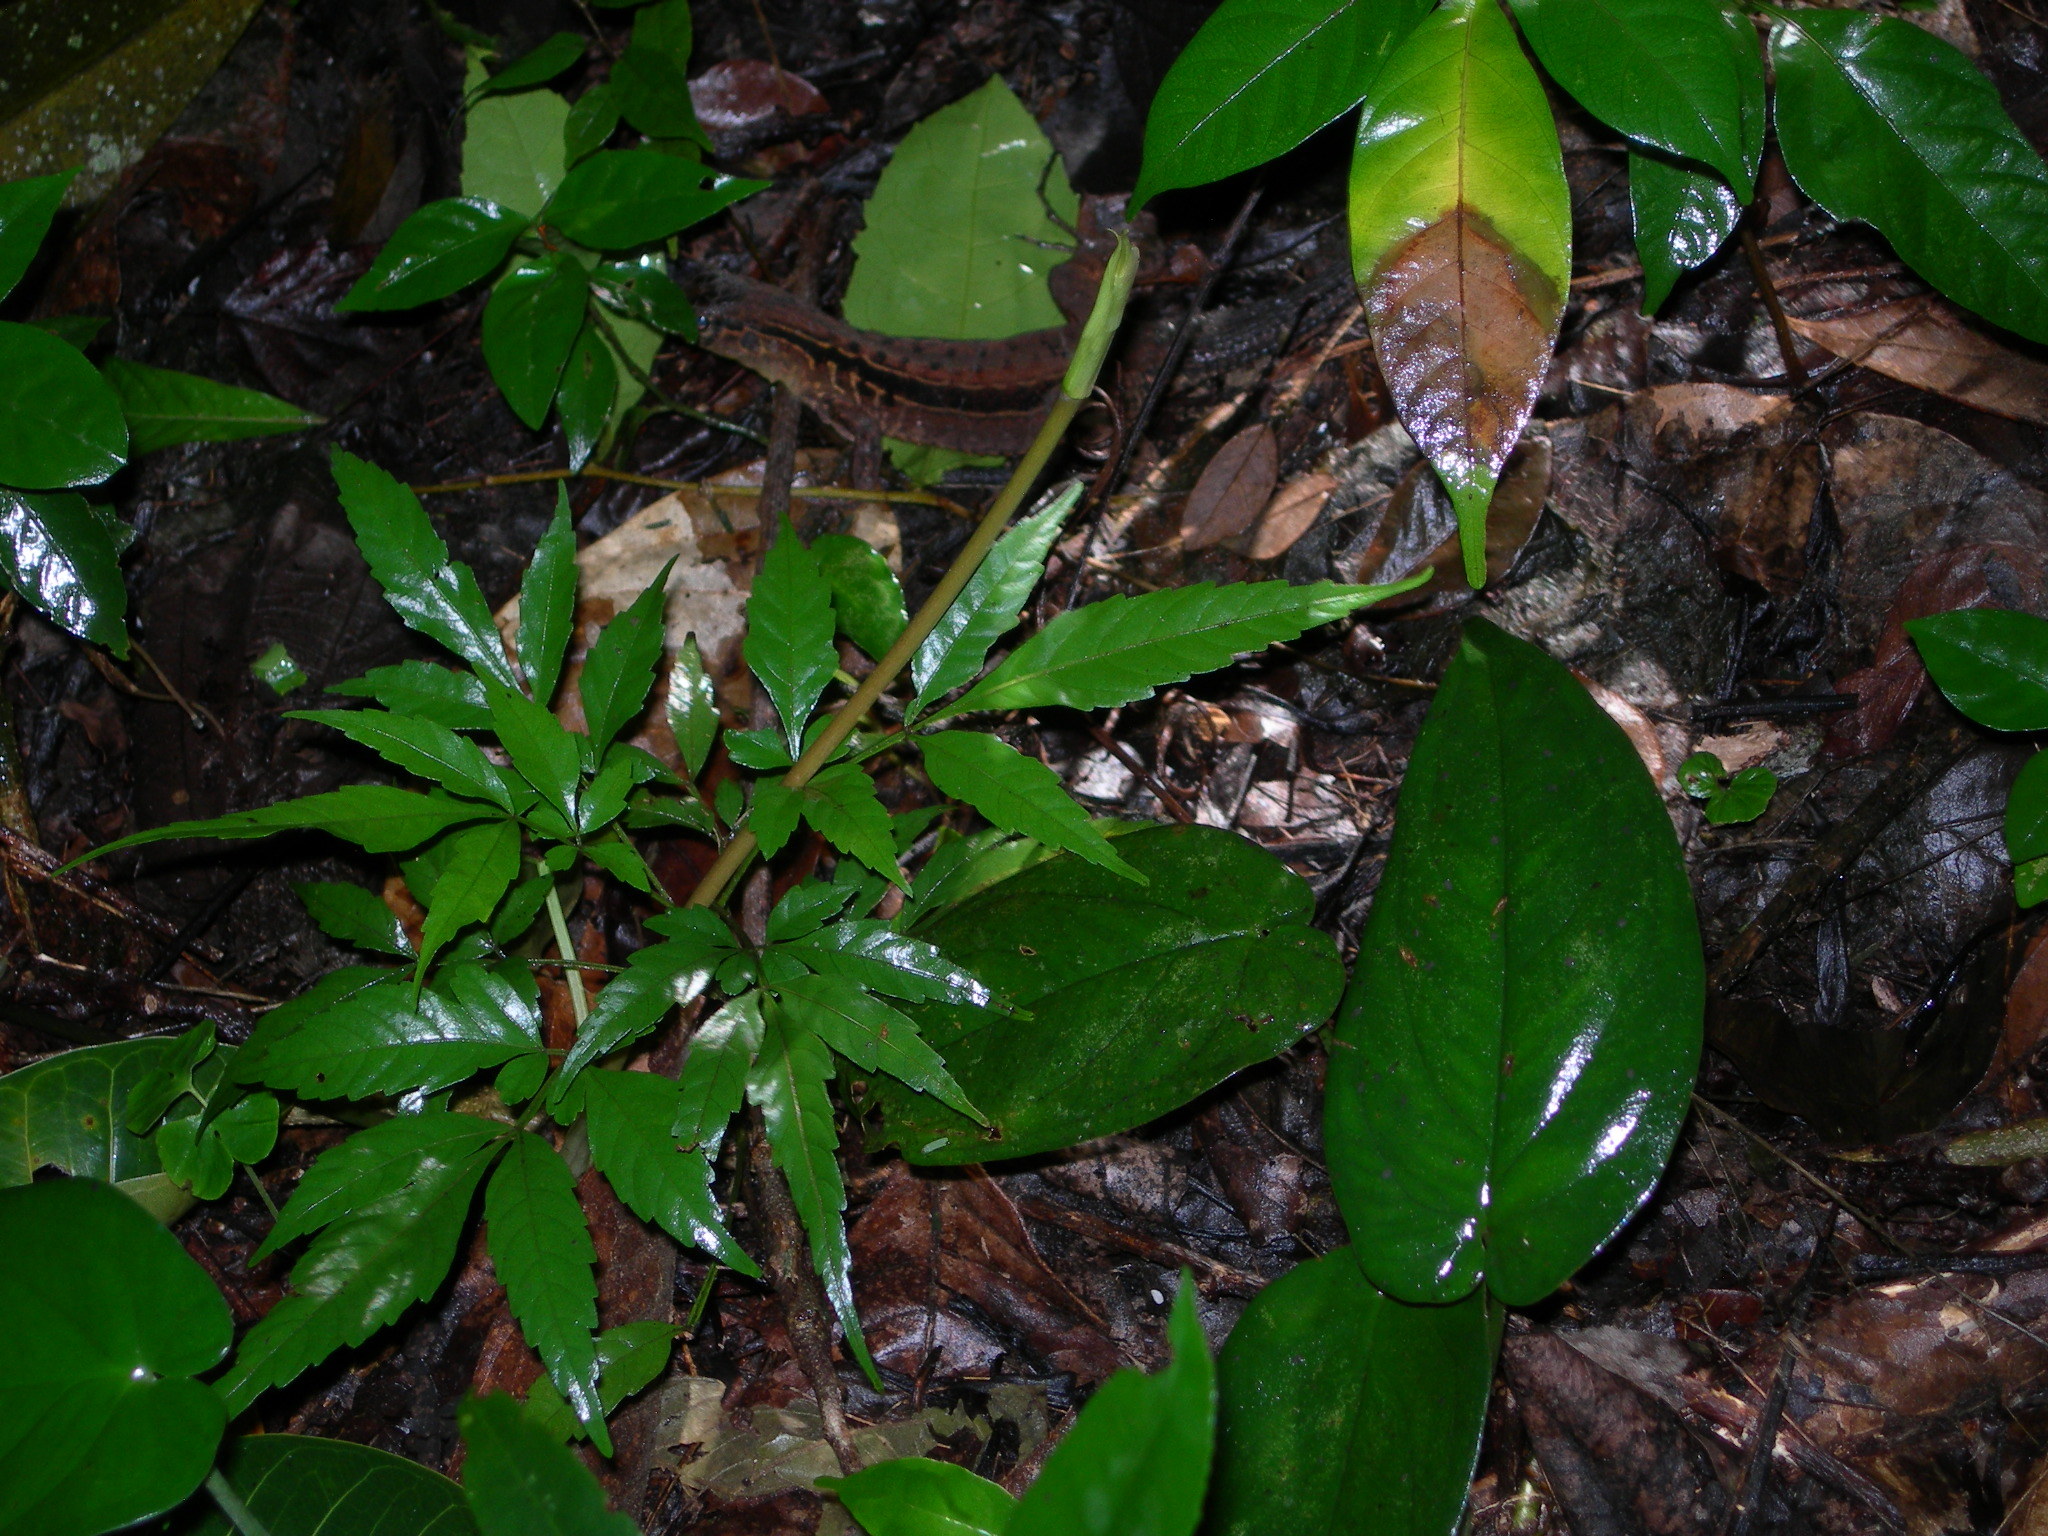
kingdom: Animalia
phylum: Chordata
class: Squamata
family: Teiidae
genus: Holcosus
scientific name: Holcosus festivus
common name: Middle american ameiva
